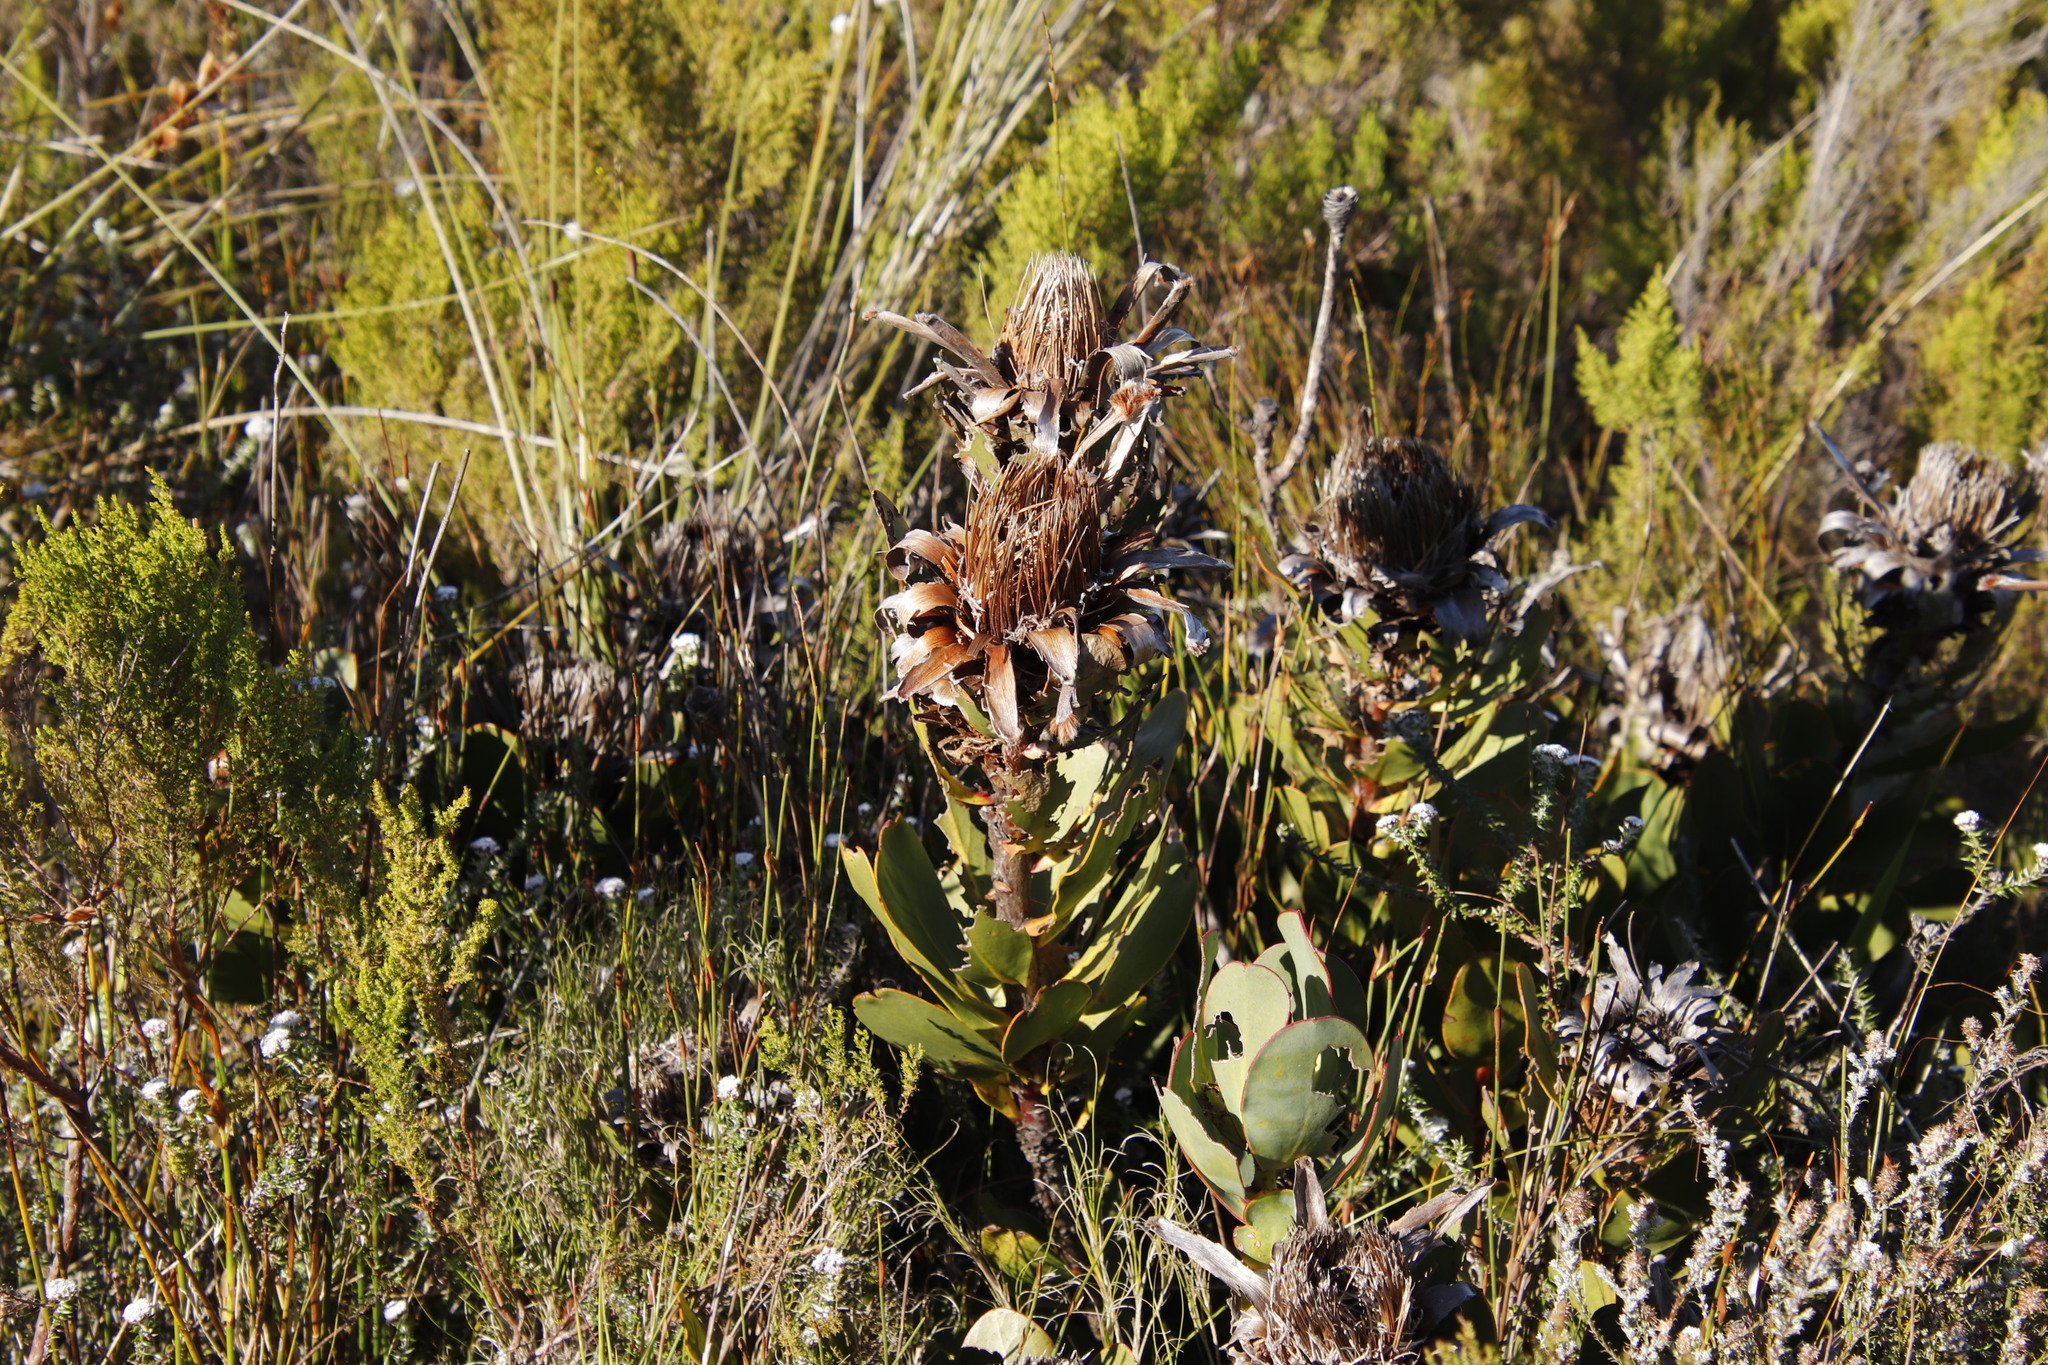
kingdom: Plantae
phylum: Tracheophyta
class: Magnoliopsida
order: Proteales
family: Proteaceae
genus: Protea
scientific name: Protea speciosa
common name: Brown-beard sugarbush
